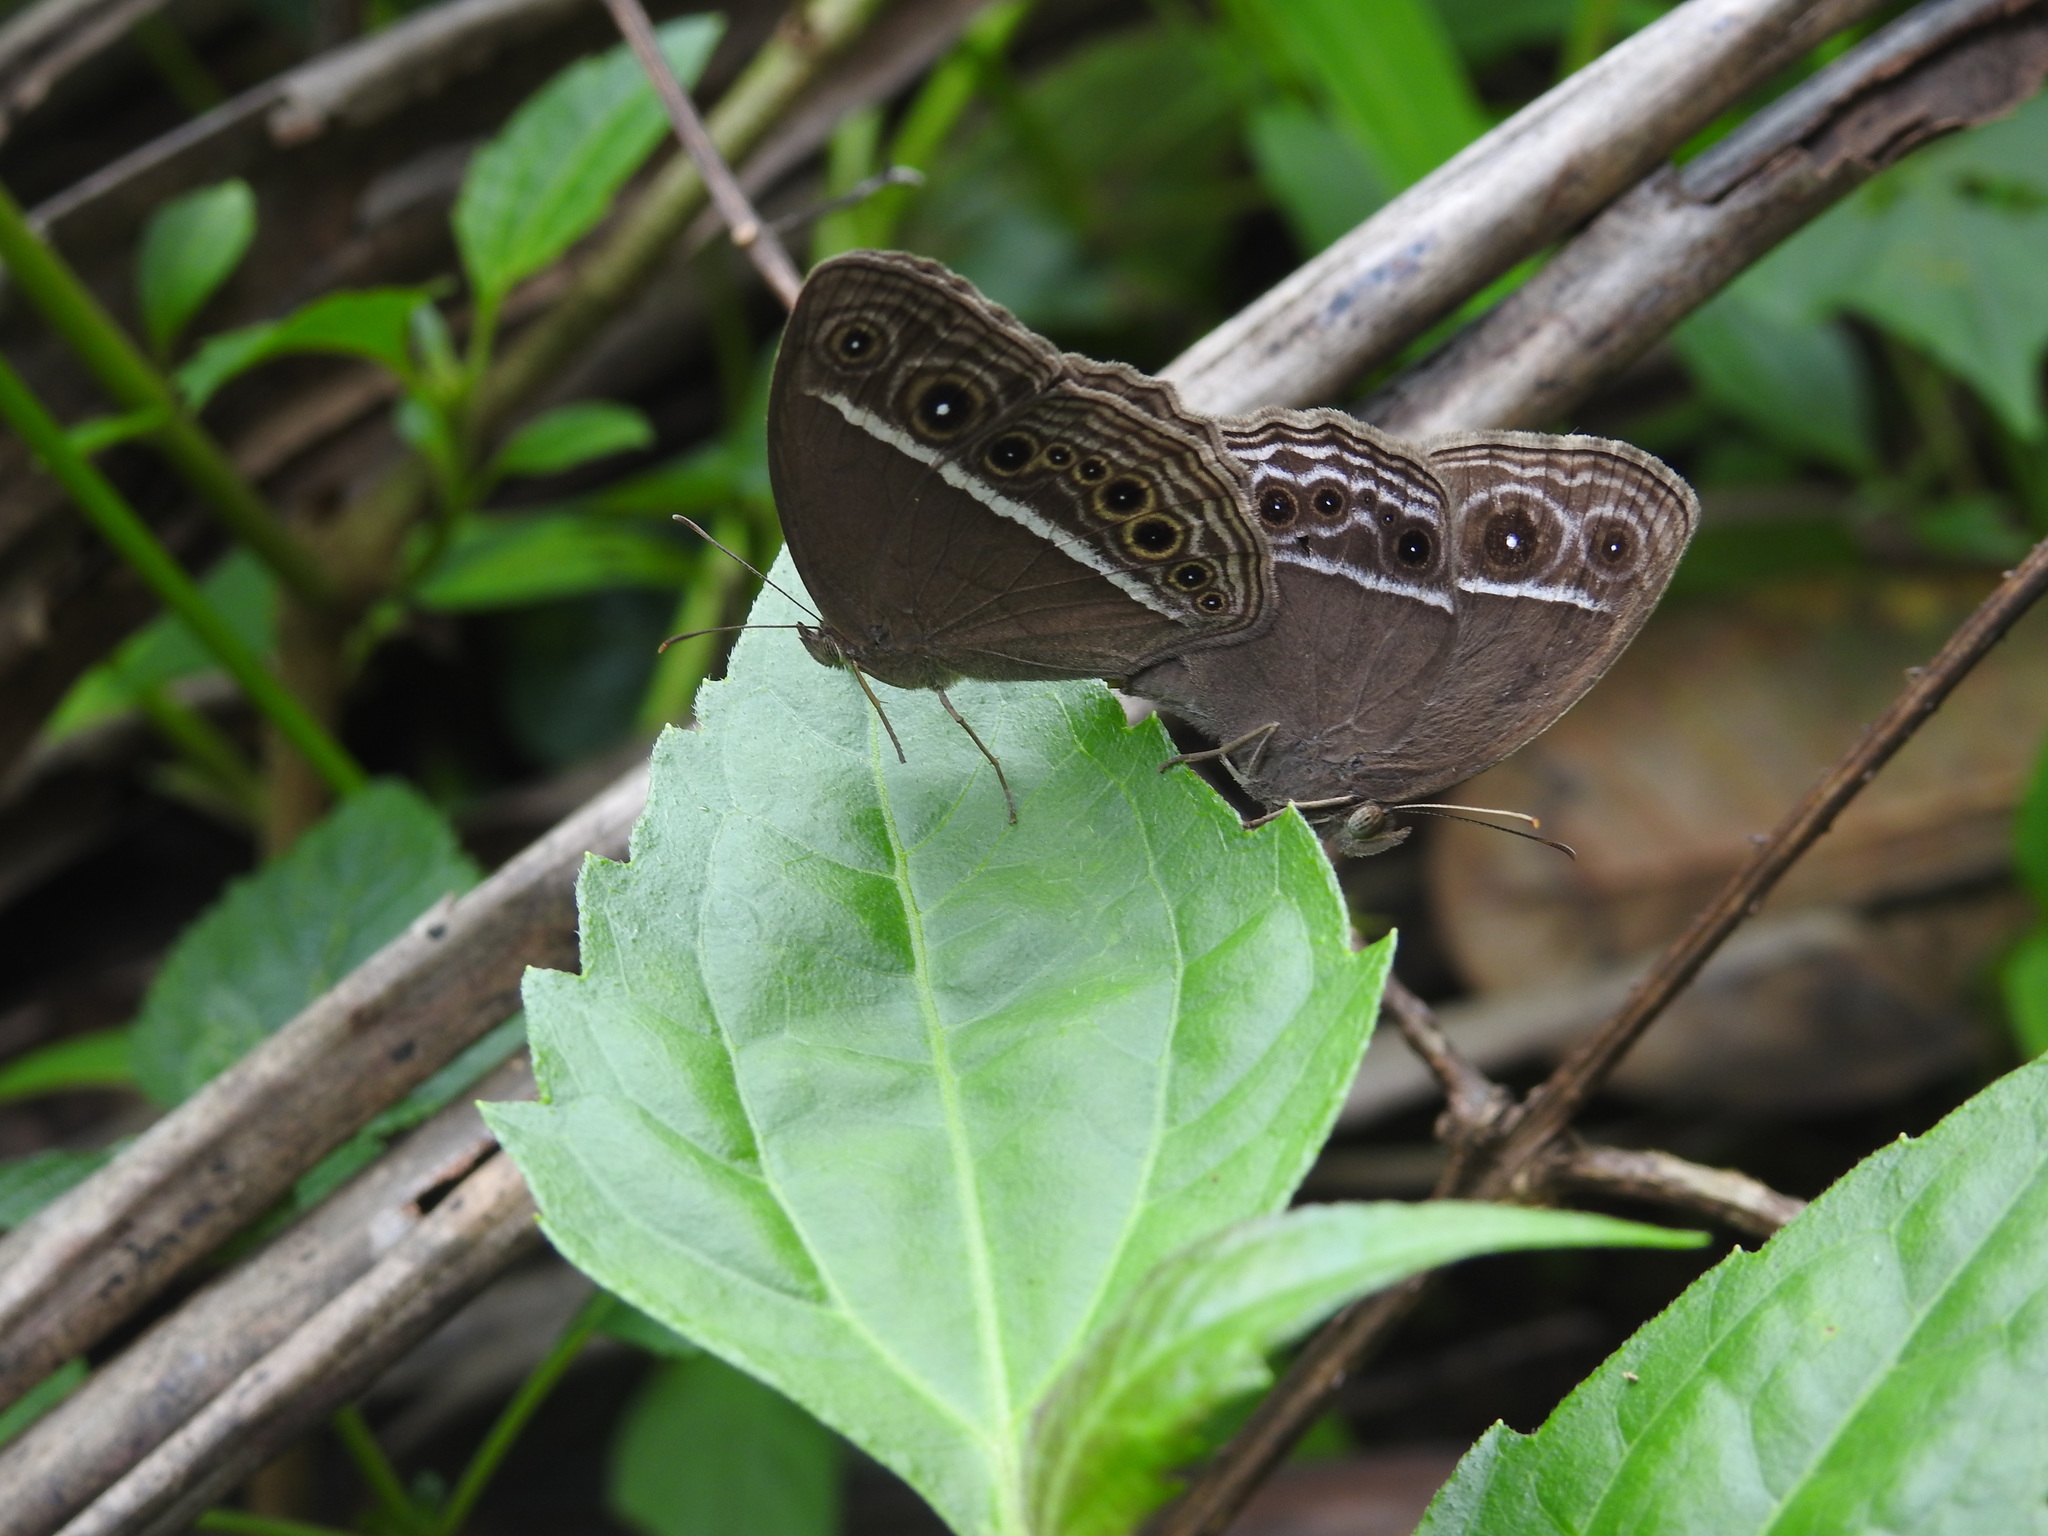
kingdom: Animalia
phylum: Arthropoda
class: Insecta
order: Lepidoptera
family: Nymphalidae
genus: Mycalesis
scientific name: Mycalesis mineus
